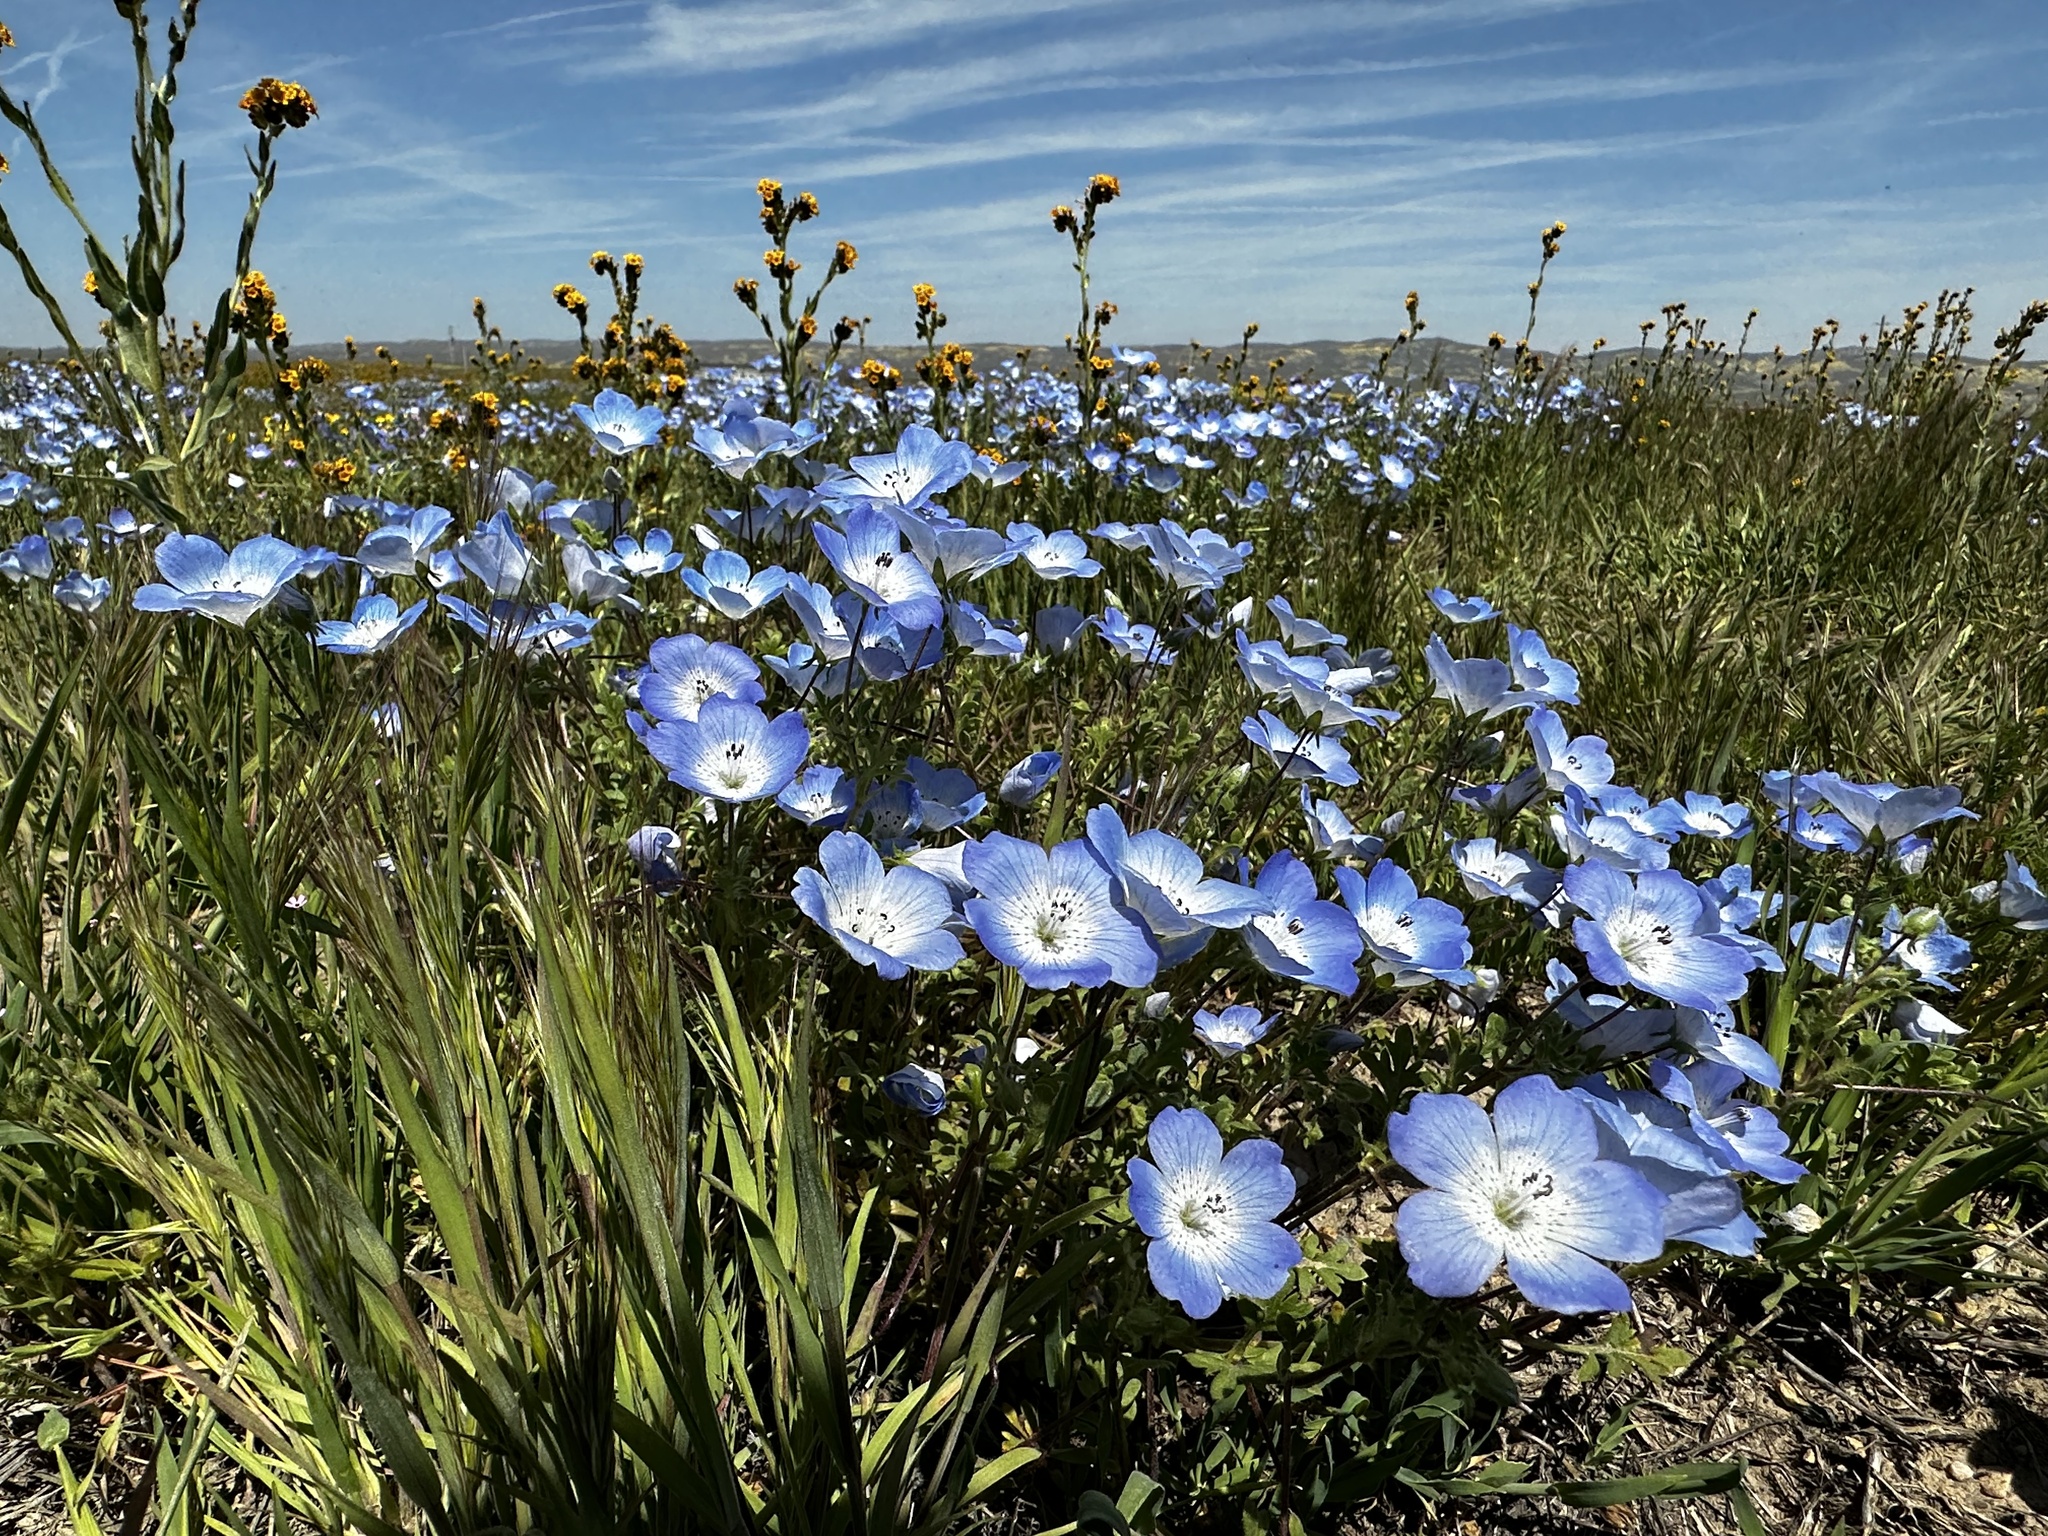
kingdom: Plantae
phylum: Tracheophyta
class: Magnoliopsida
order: Boraginales
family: Hydrophyllaceae
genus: Nemophila
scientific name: Nemophila menziesii
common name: Baby's-blue-eyes
